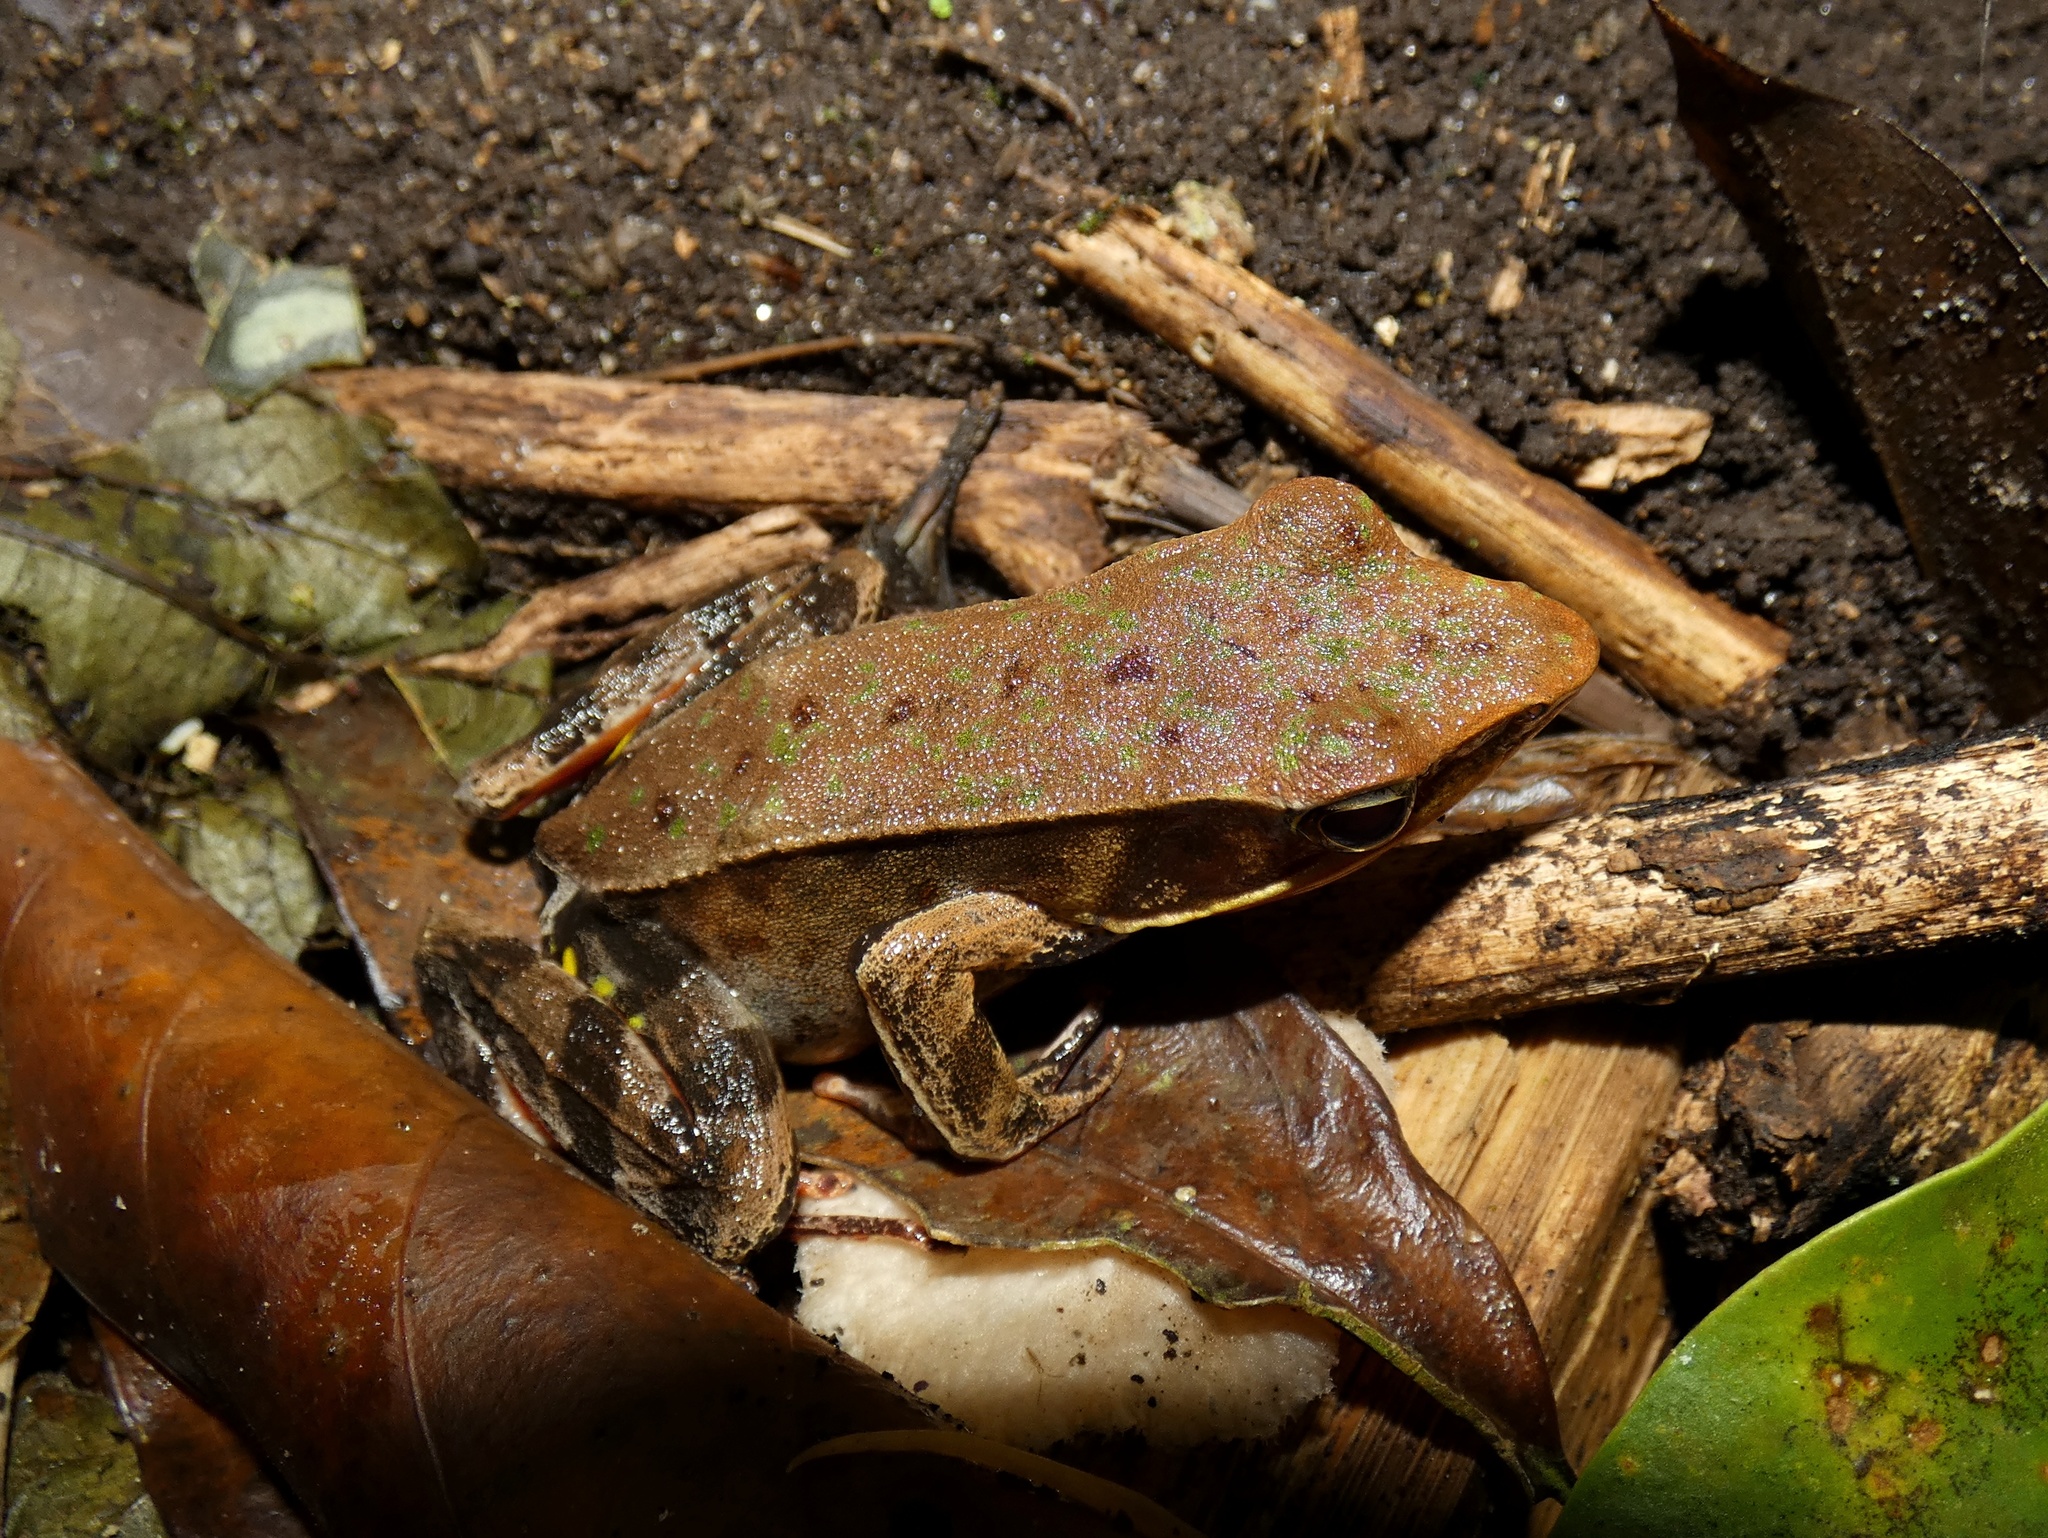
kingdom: Animalia
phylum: Chordata
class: Amphibia
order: Anura
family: Ranidae
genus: Lithobates
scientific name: Lithobates warszewitschii
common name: Warszewitsch's frog
